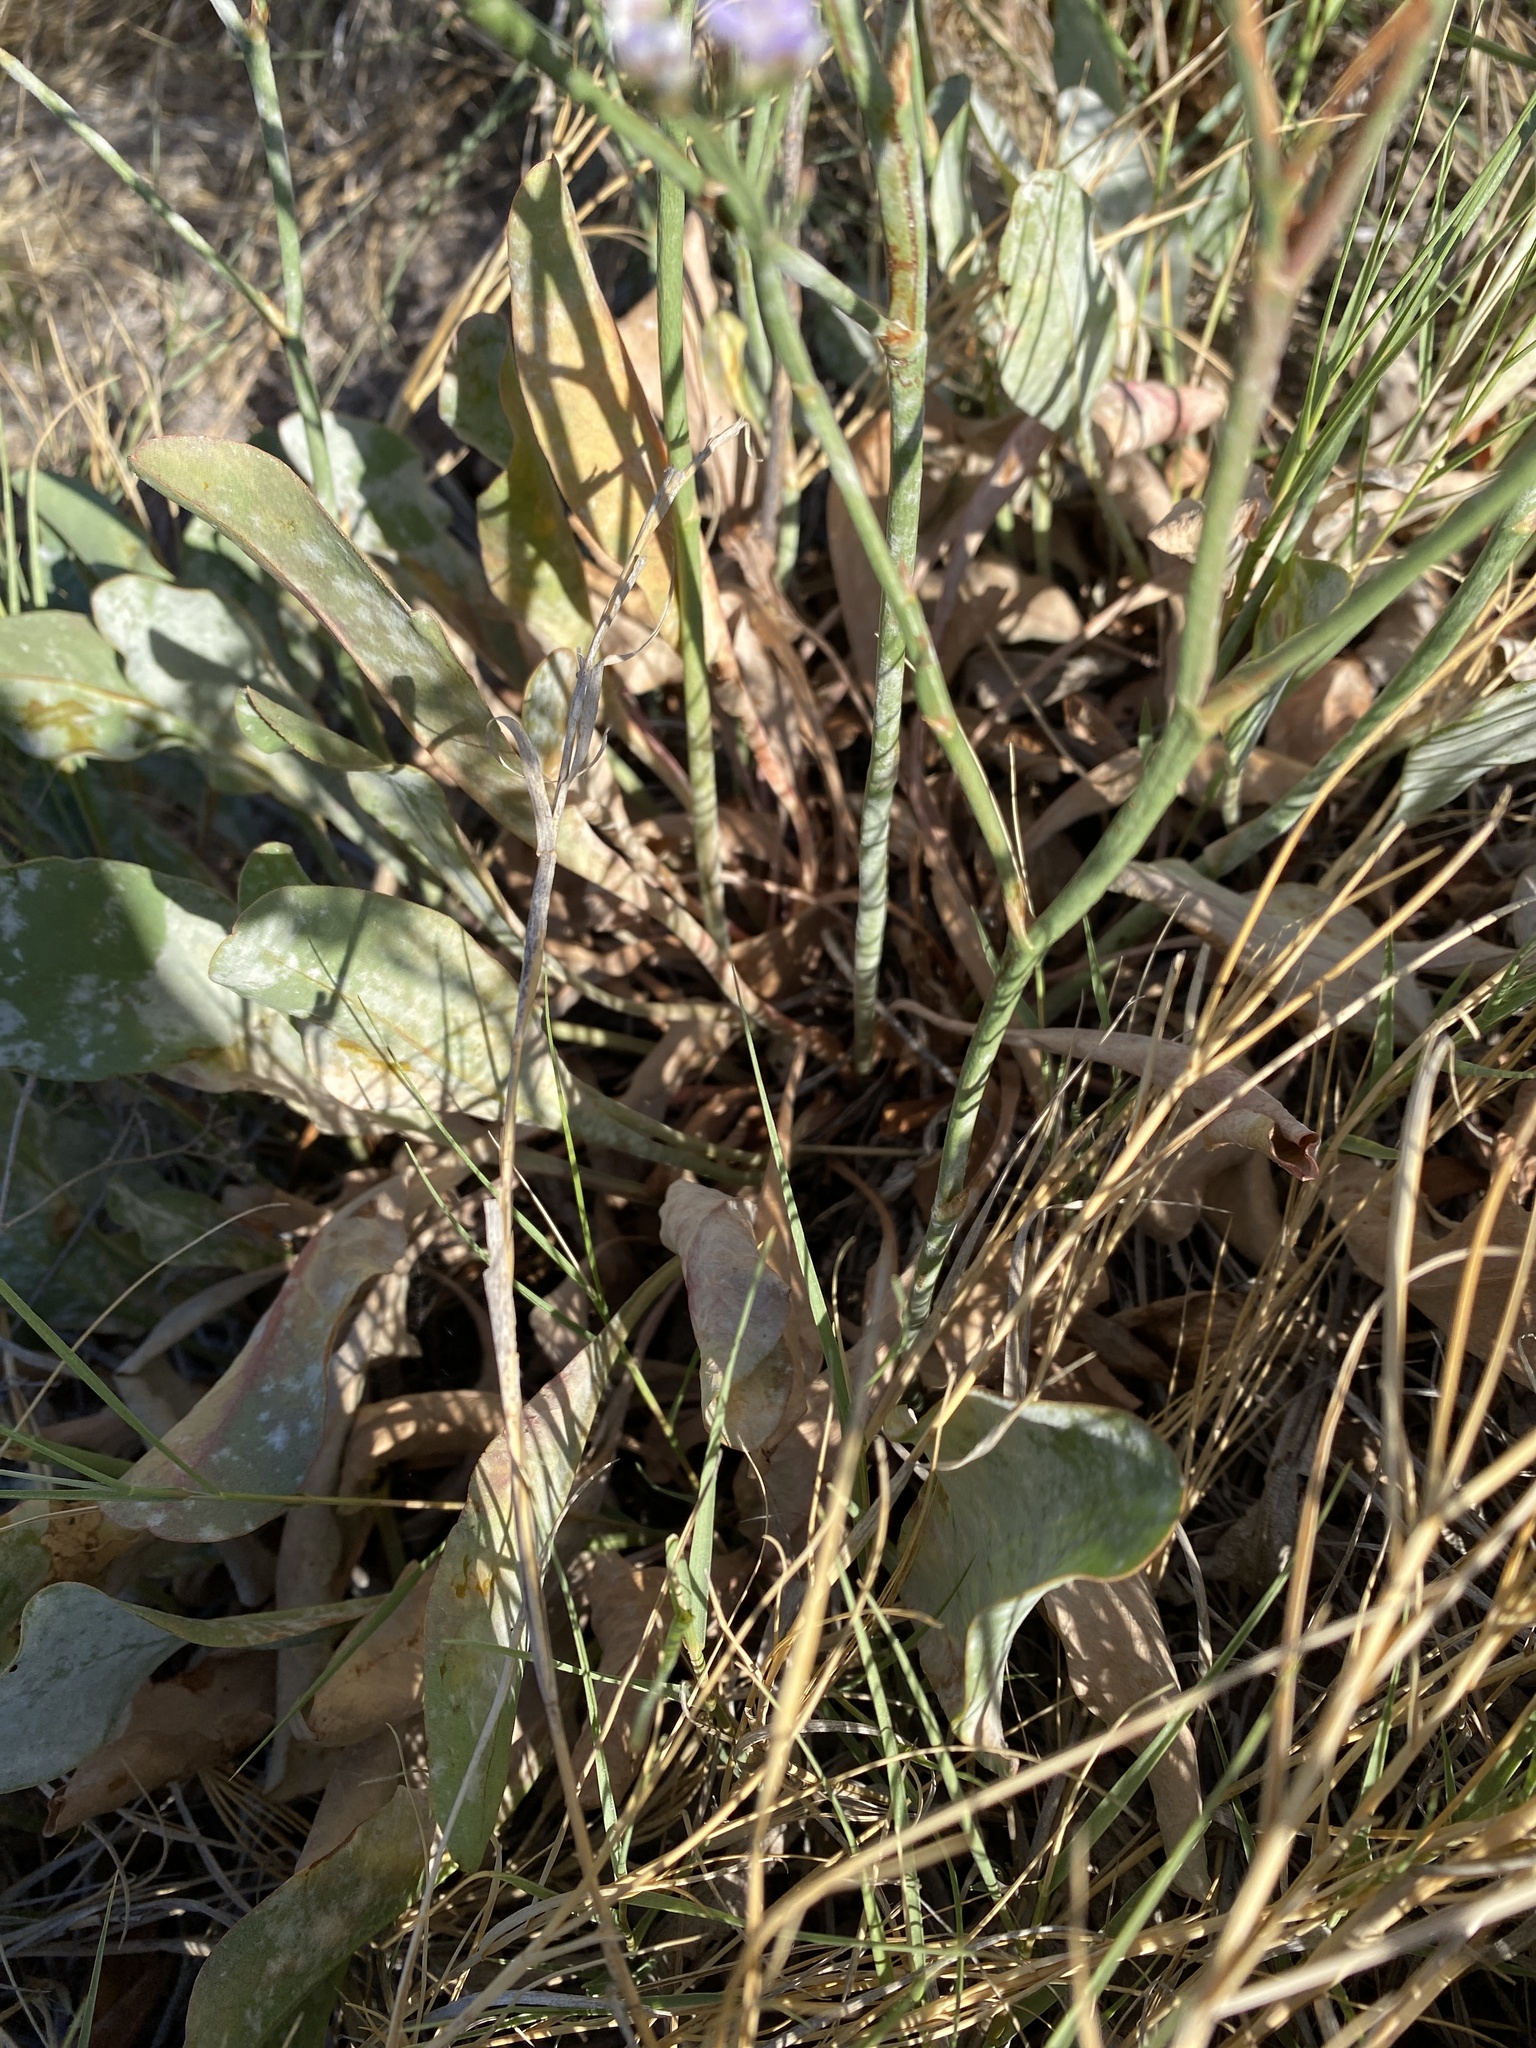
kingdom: Plantae
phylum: Tracheophyta
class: Magnoliopsida
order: Caryophyllales
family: Plumbaginaceae
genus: Limonium
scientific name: Limonium limbatum
